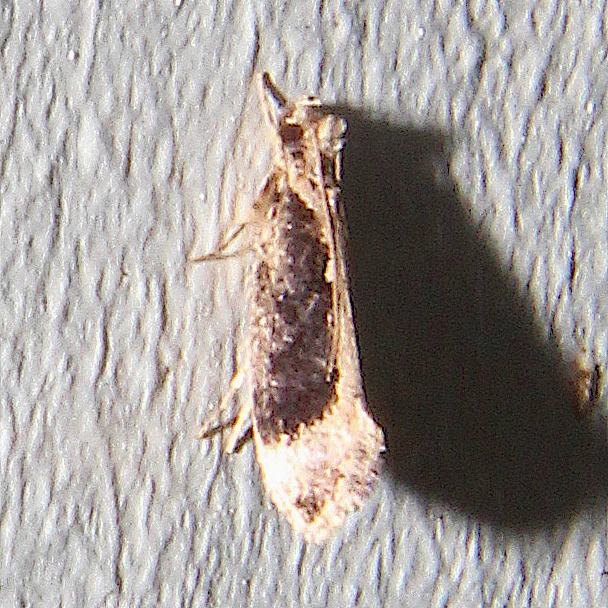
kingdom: Animalia
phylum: Arthropoda
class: Insecta
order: Lepidoptera
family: Tineidae
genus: Erechthias
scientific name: Erechthias capnitis
